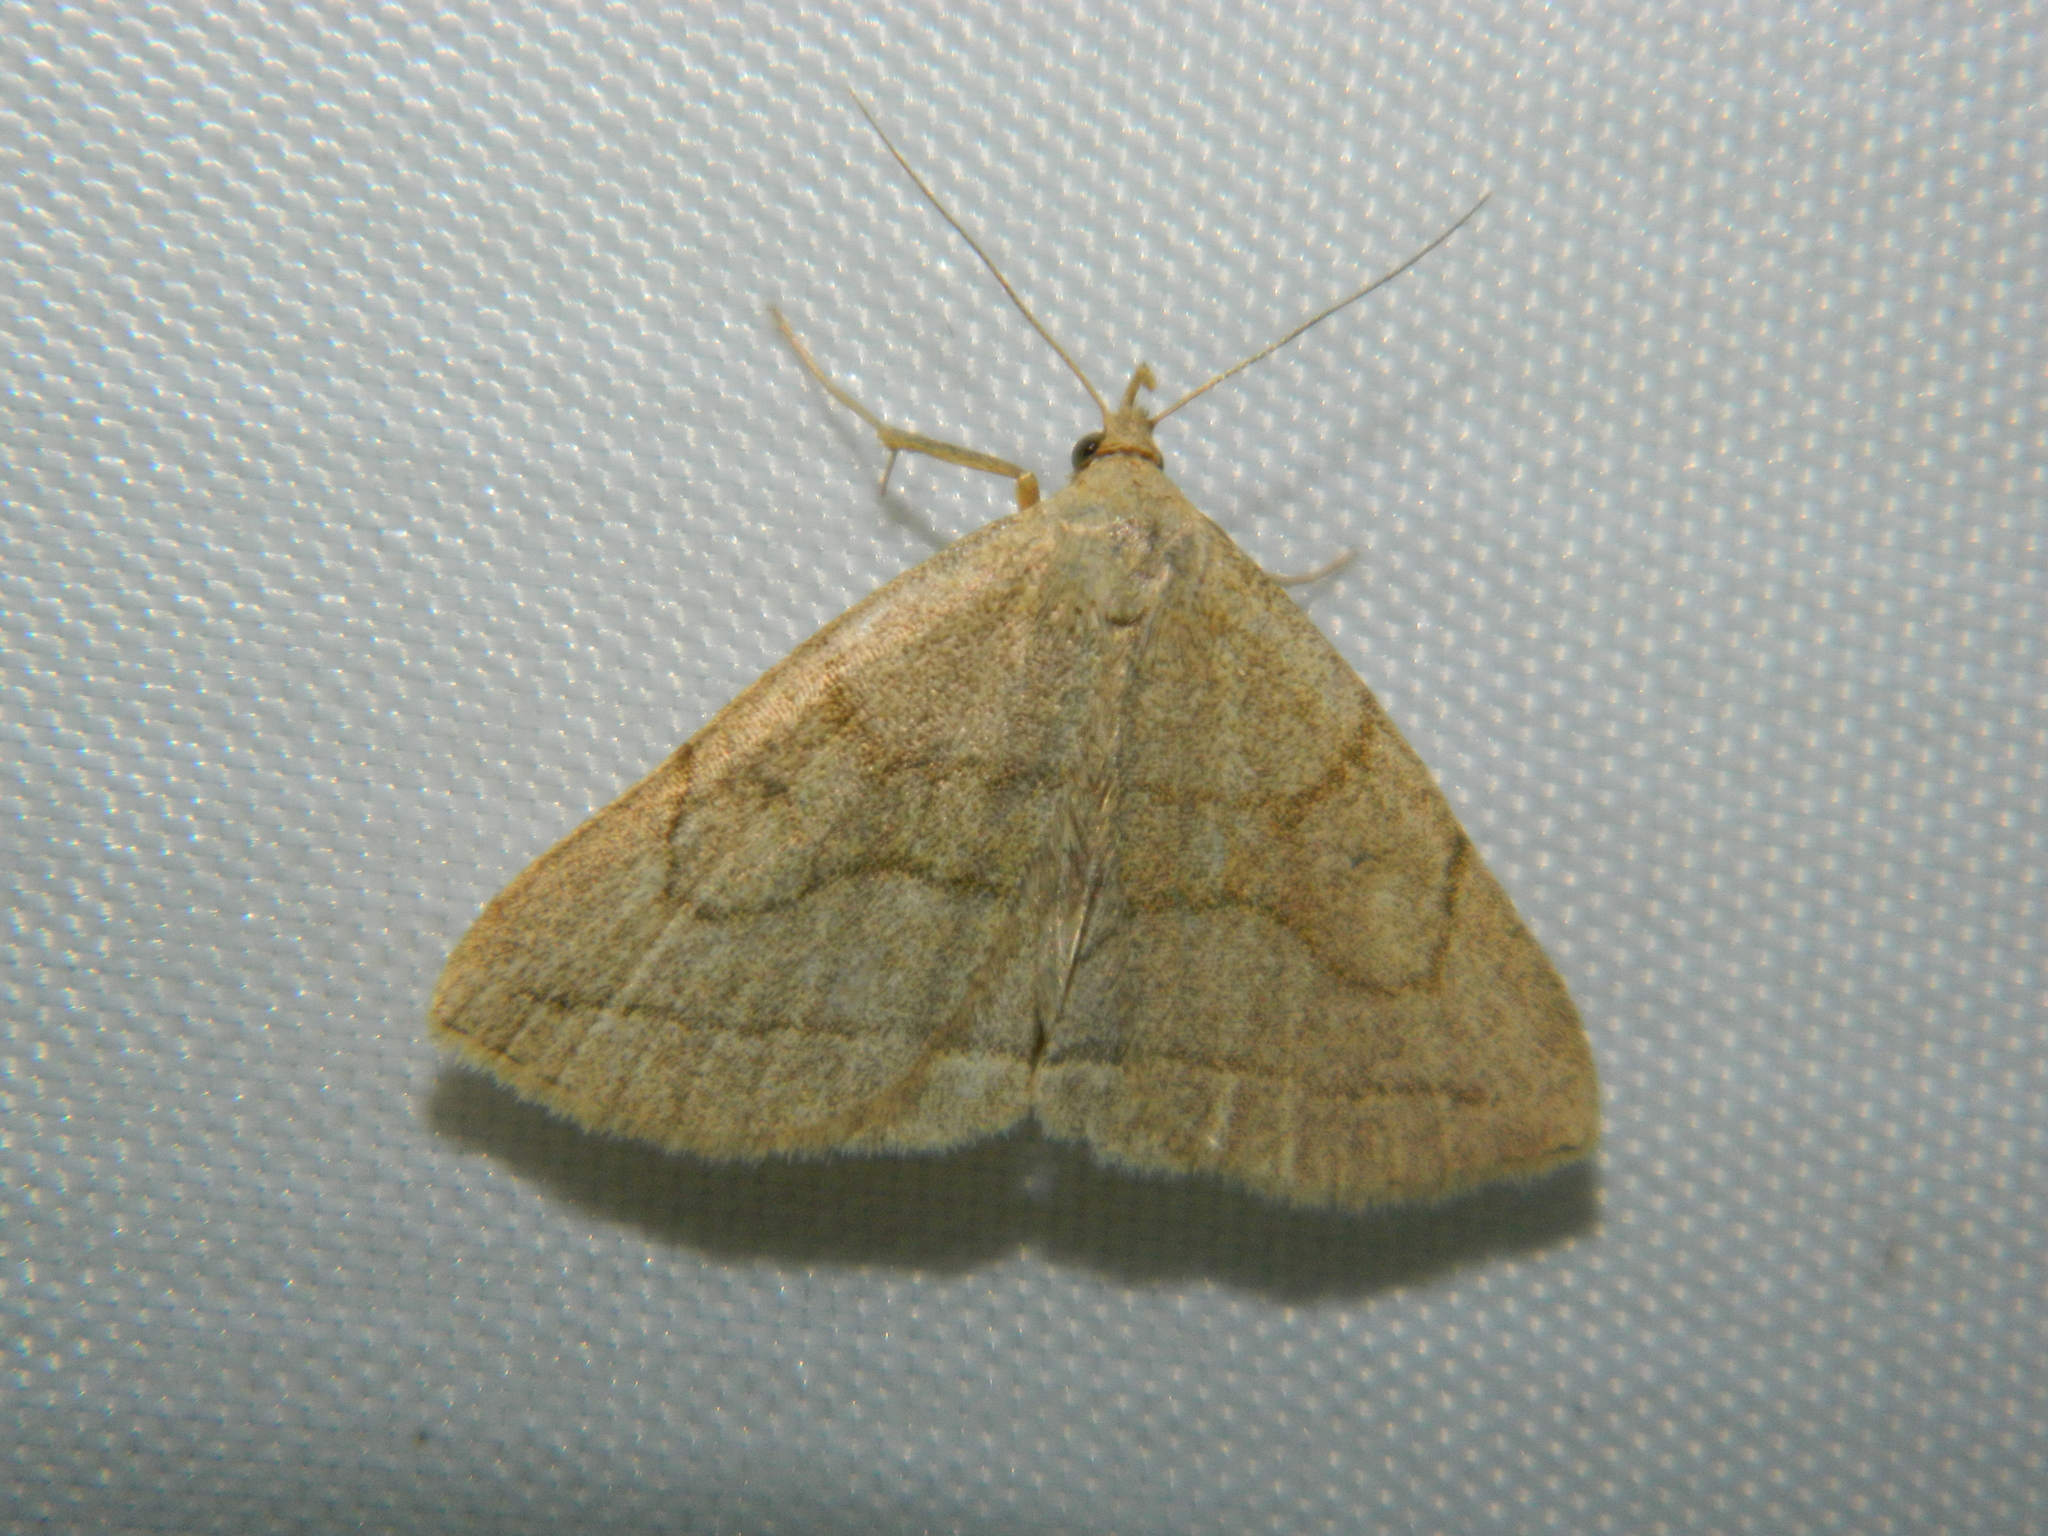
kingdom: Animalia
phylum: Arthropoda
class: Insecta
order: Lepidoptera
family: Erebidae
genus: Zanclognatha
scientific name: Zanclognatha pedipilalis
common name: Grayish fan-foot
